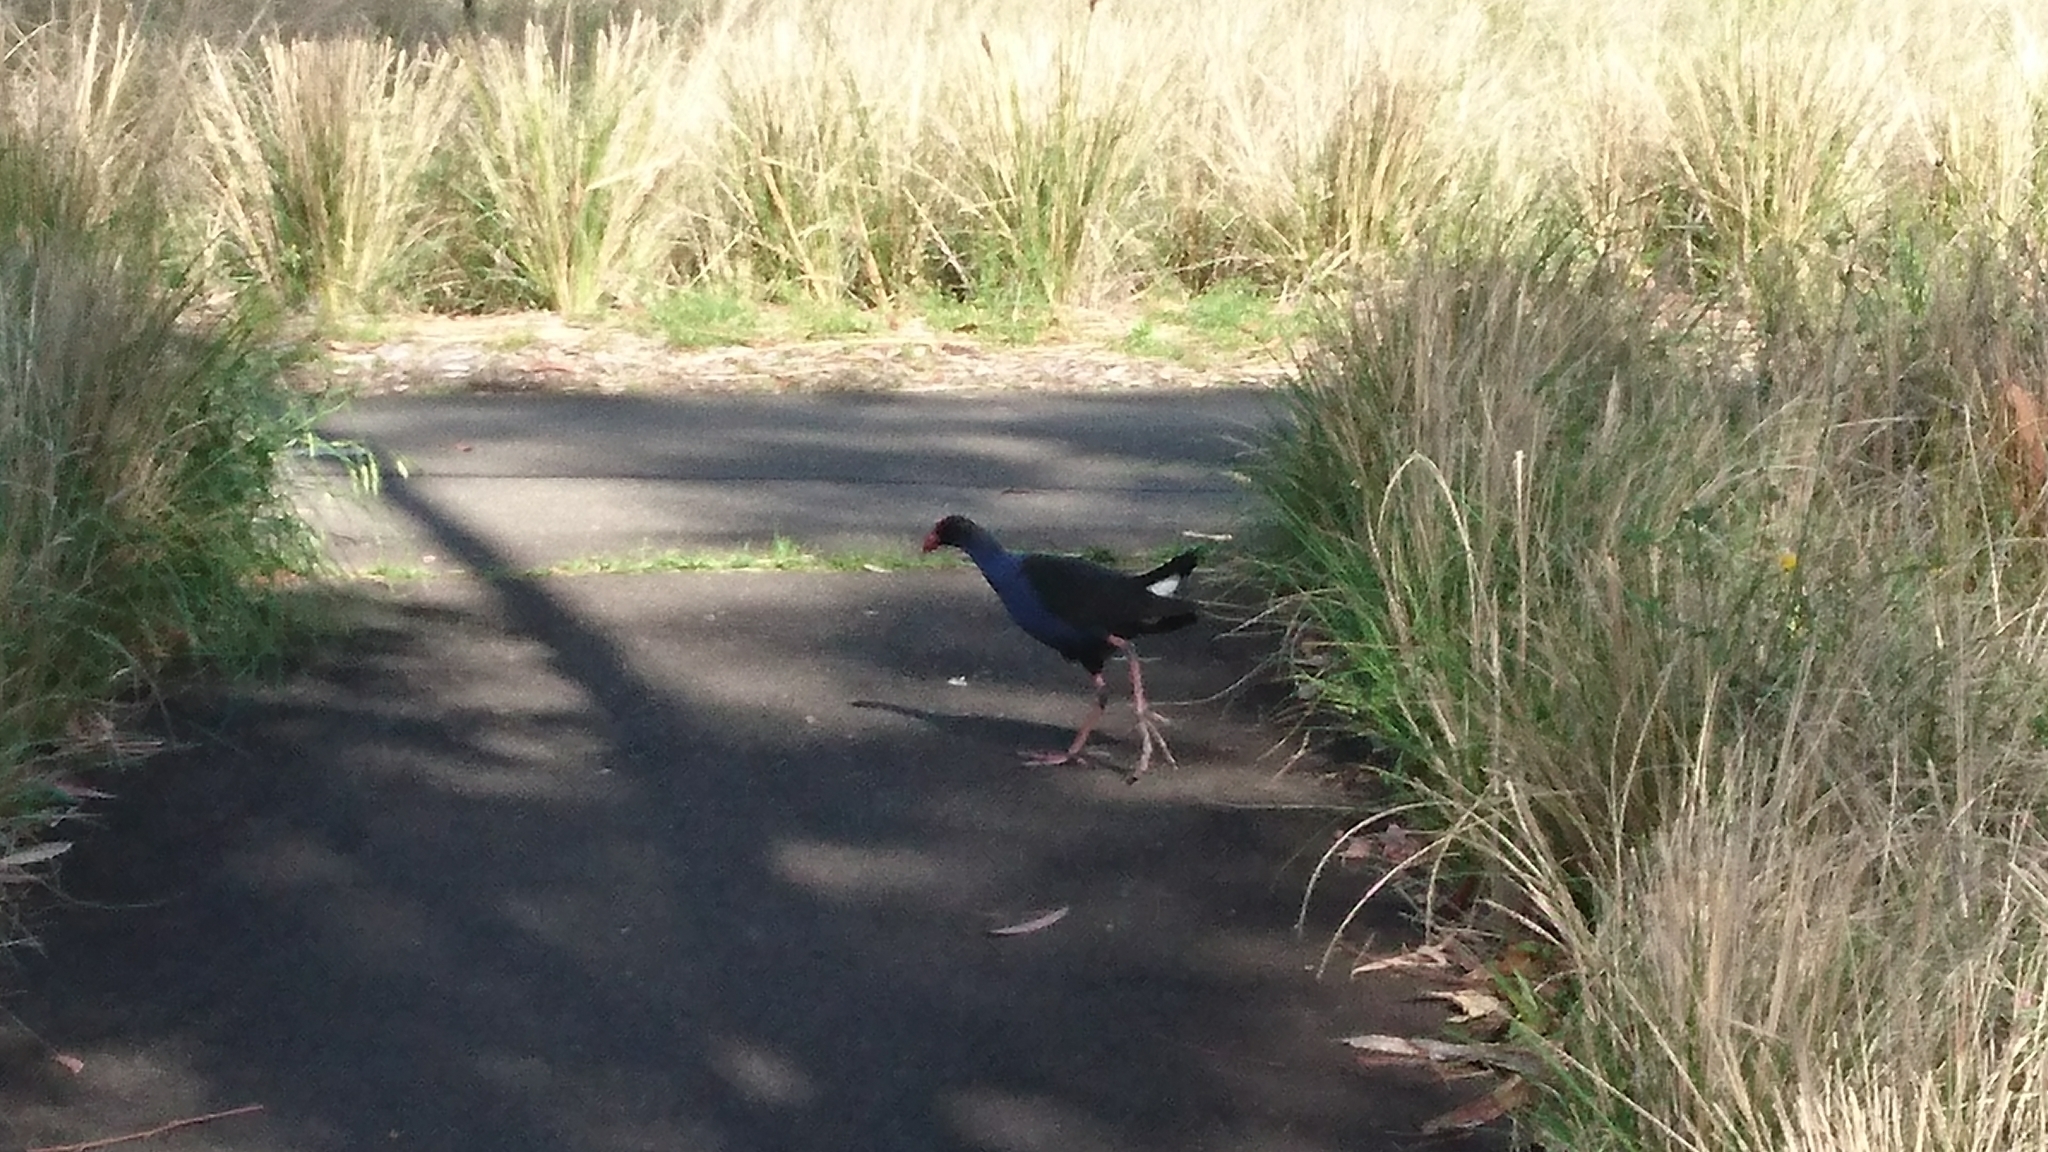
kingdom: Animalia
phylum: Chordata
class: Aves
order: Gruiformes
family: Rallidae
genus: Porphyrio
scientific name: Porphyrio melanotus
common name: Australasian swamphen
